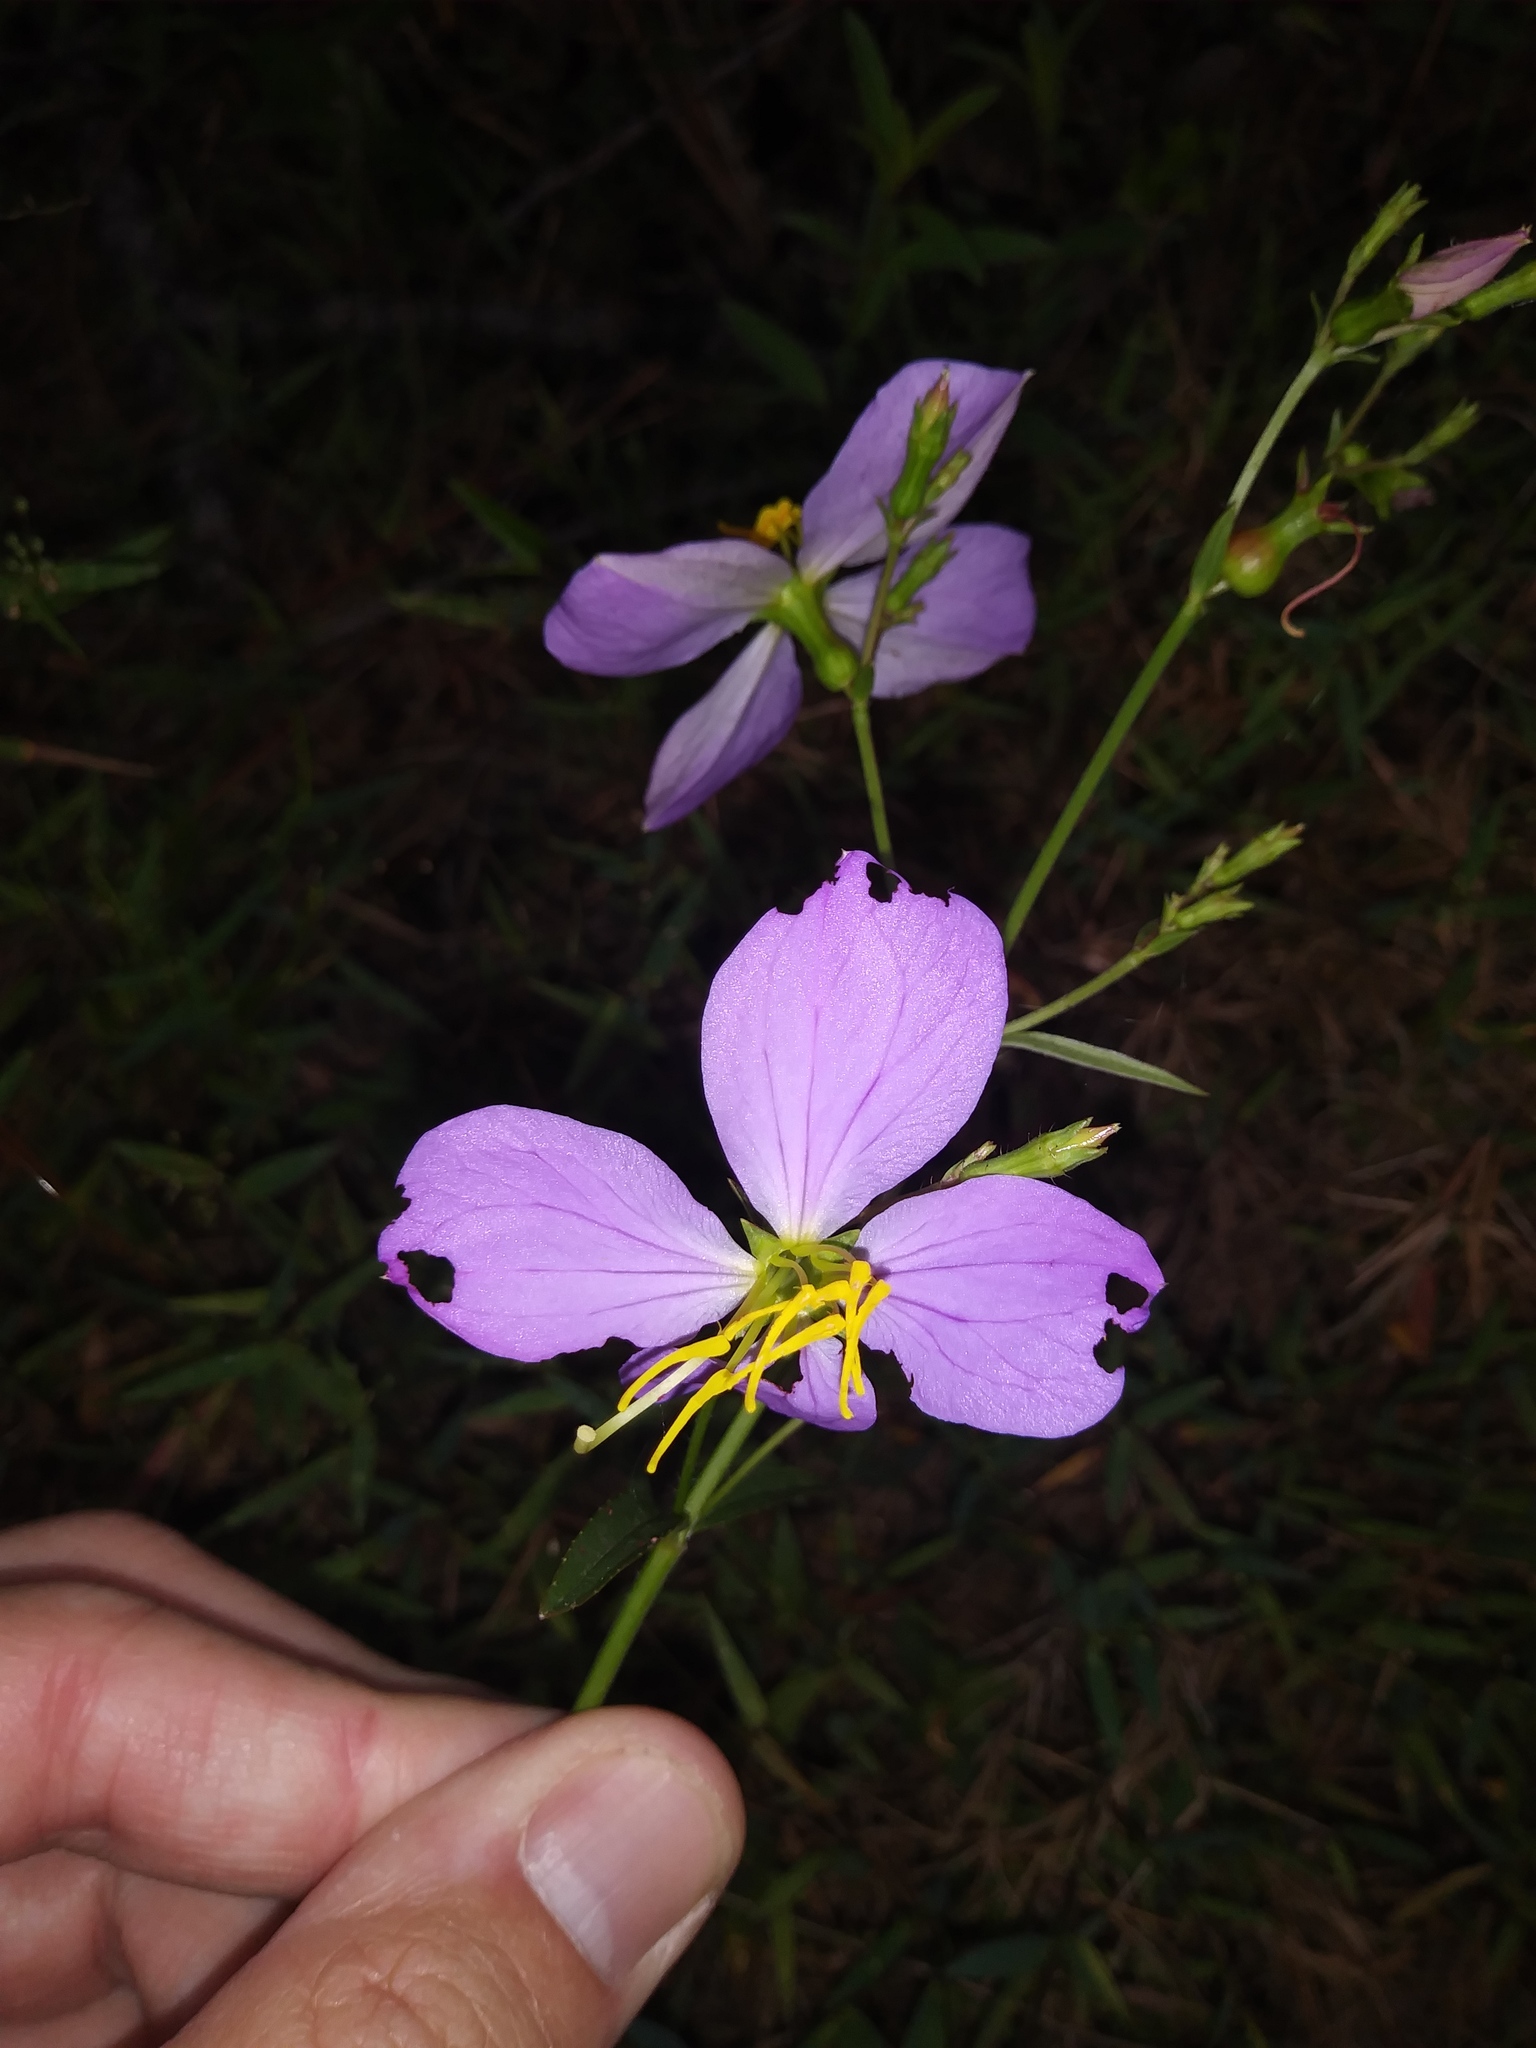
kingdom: Plantae
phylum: Tracheophyta
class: Magnoliopsida
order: Myrtales
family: Melastomataceae
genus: Rhexia
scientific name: Rhexia mariana
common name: Dull meadow-pitcher
